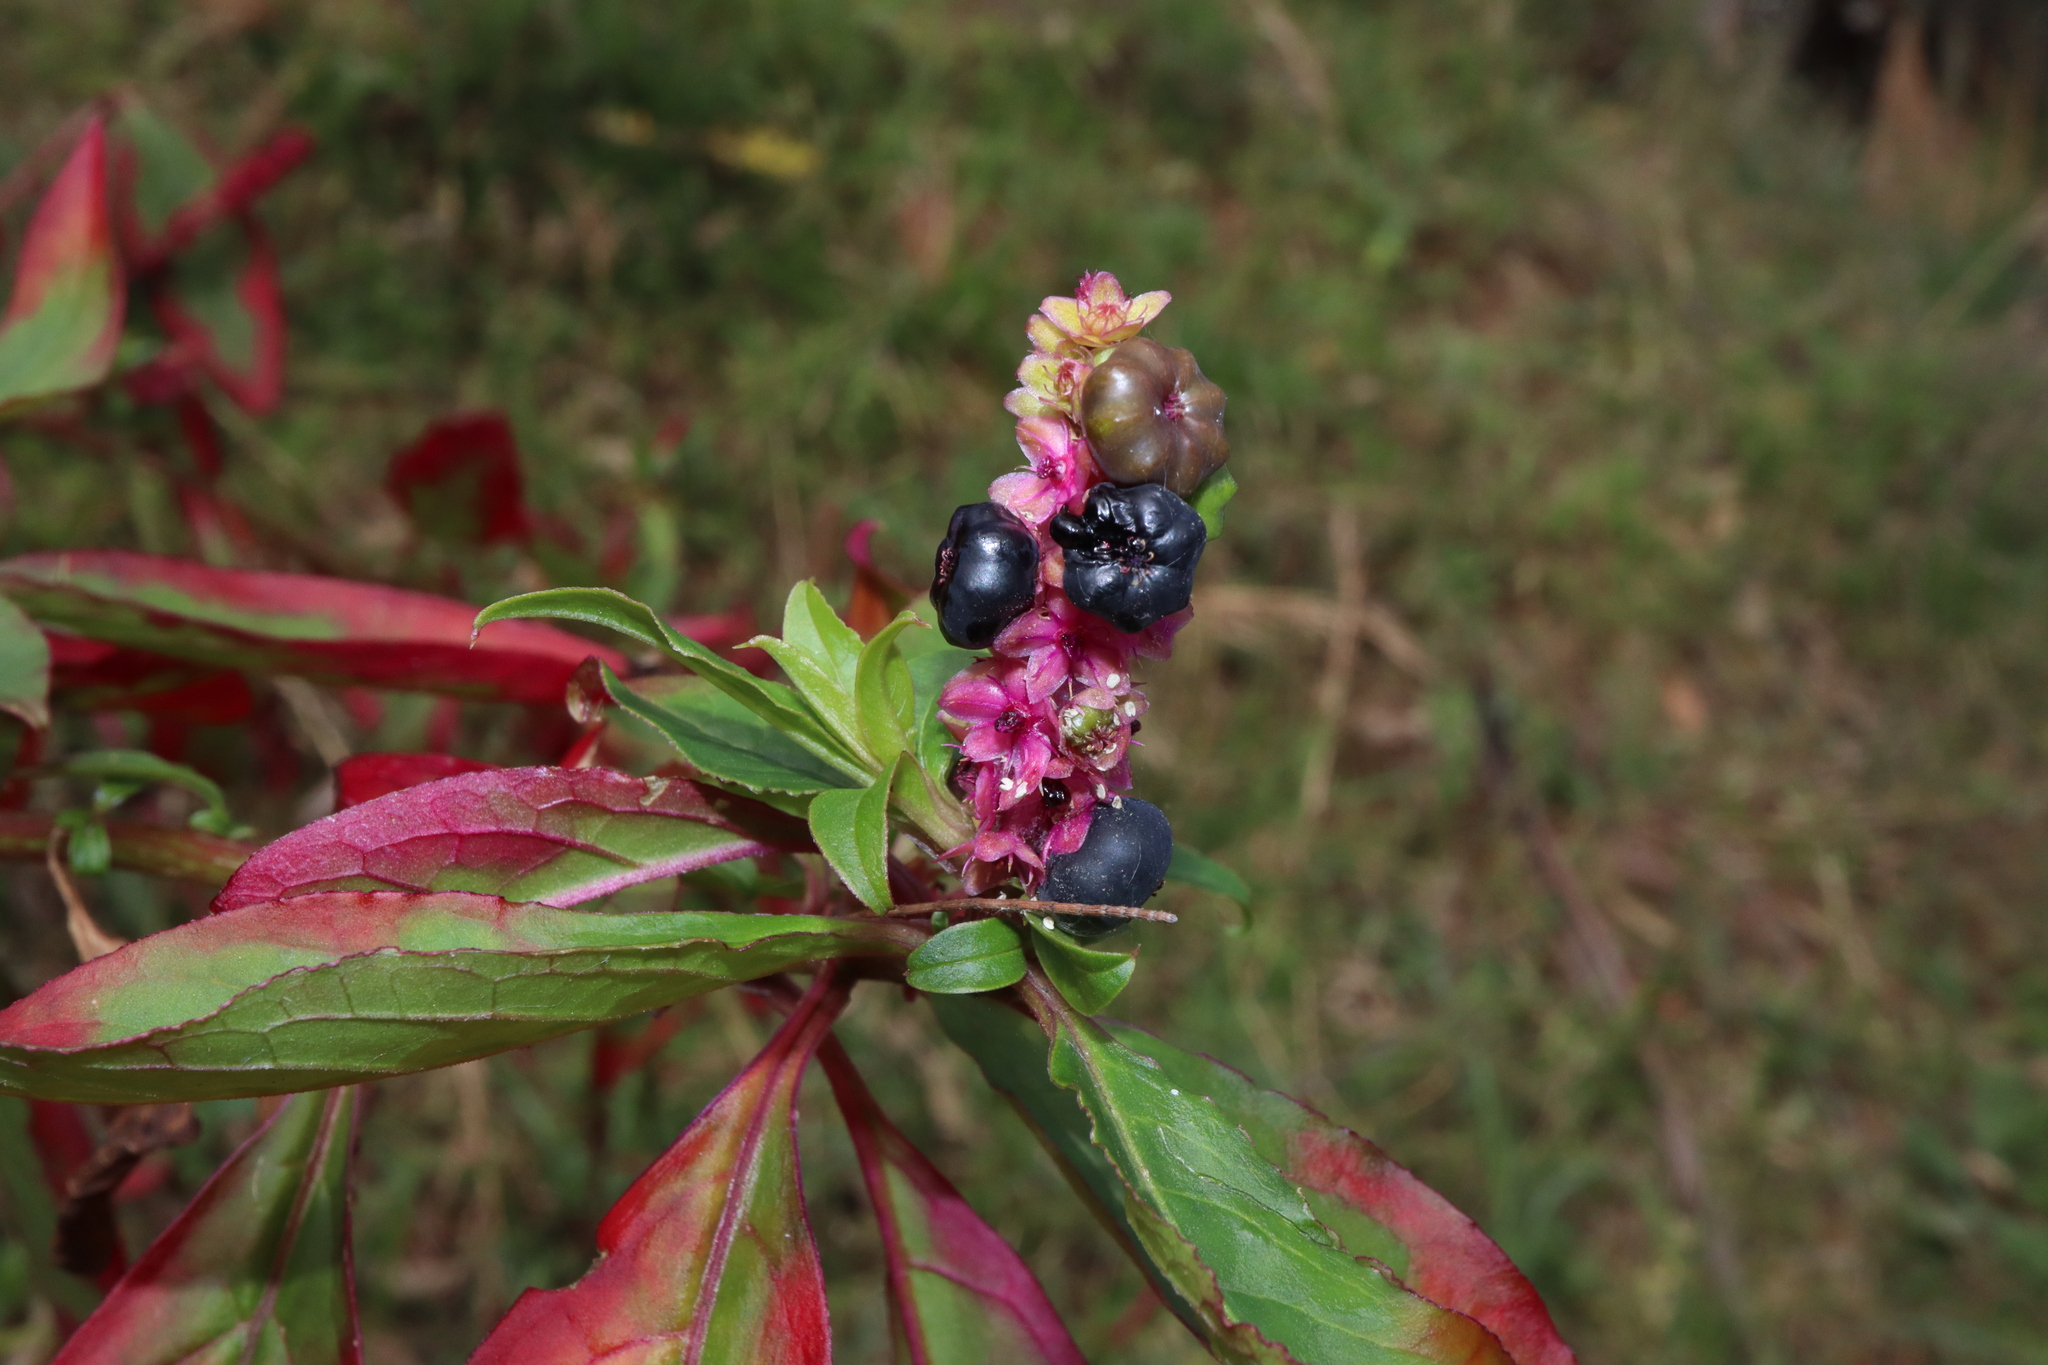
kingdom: Plantae
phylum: Tracheophyta
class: Magnoliopsida
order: Caryophyllales
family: Phytolaccaceae
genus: Phytolacca
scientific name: Phytolacca icosandra
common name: Button pokeweed
